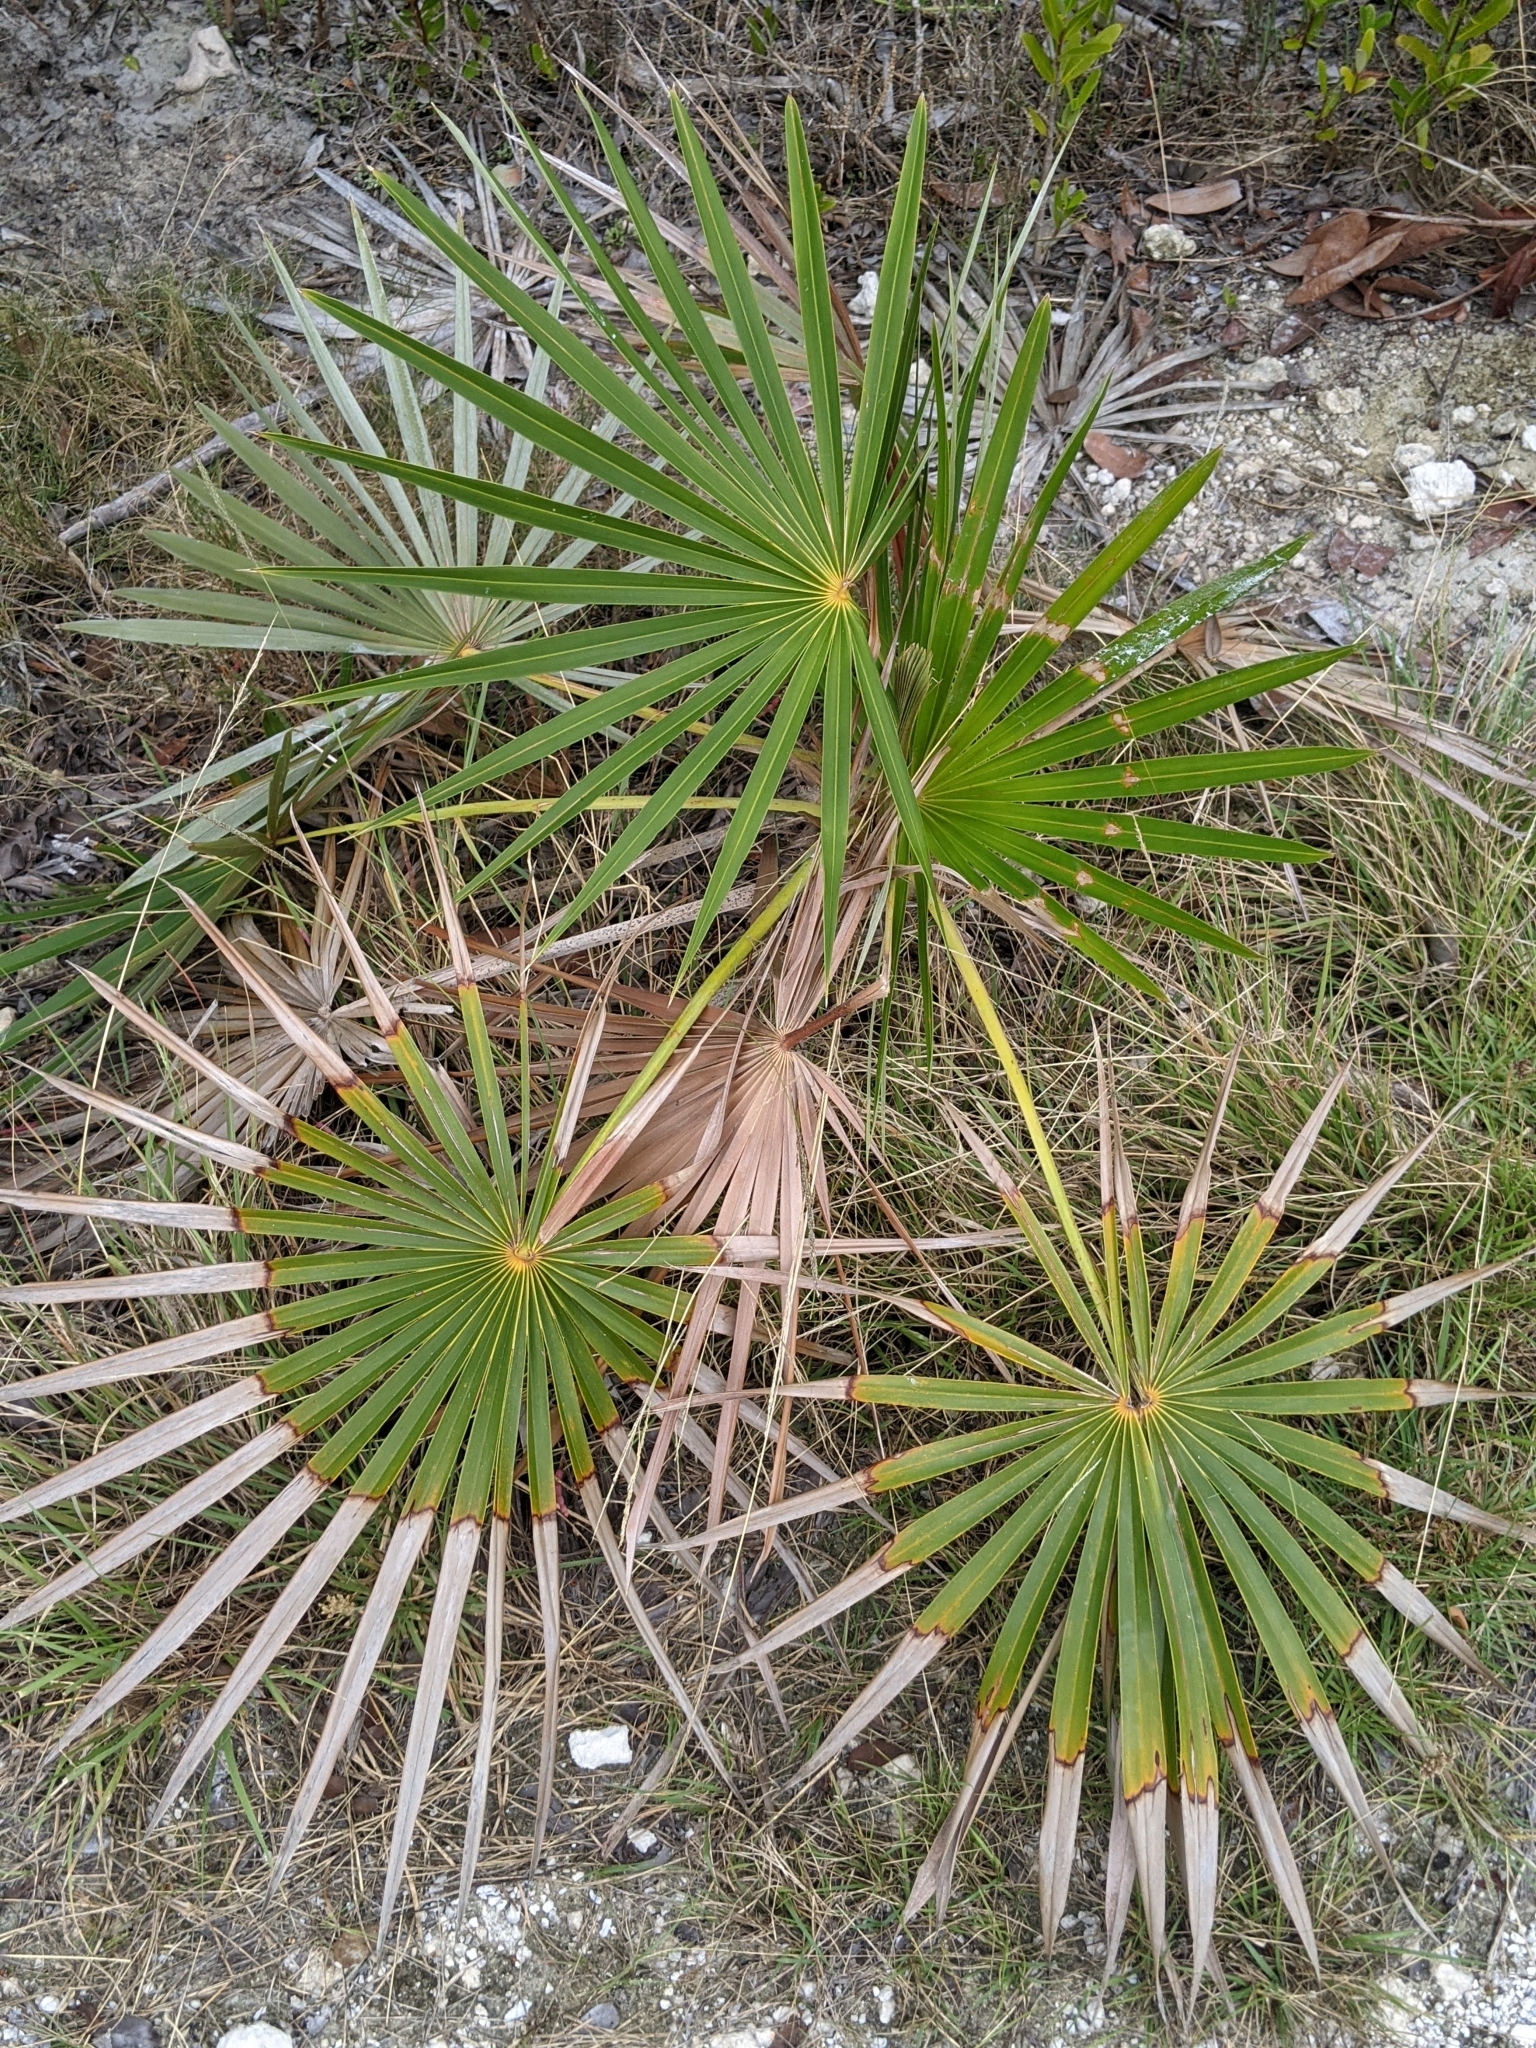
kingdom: Plantae
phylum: Tracheophyta
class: Liliopsida
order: Arecales
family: Arecaceae
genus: Coccothrinax
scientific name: Coccothrinax argentata
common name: Florida silver palm
